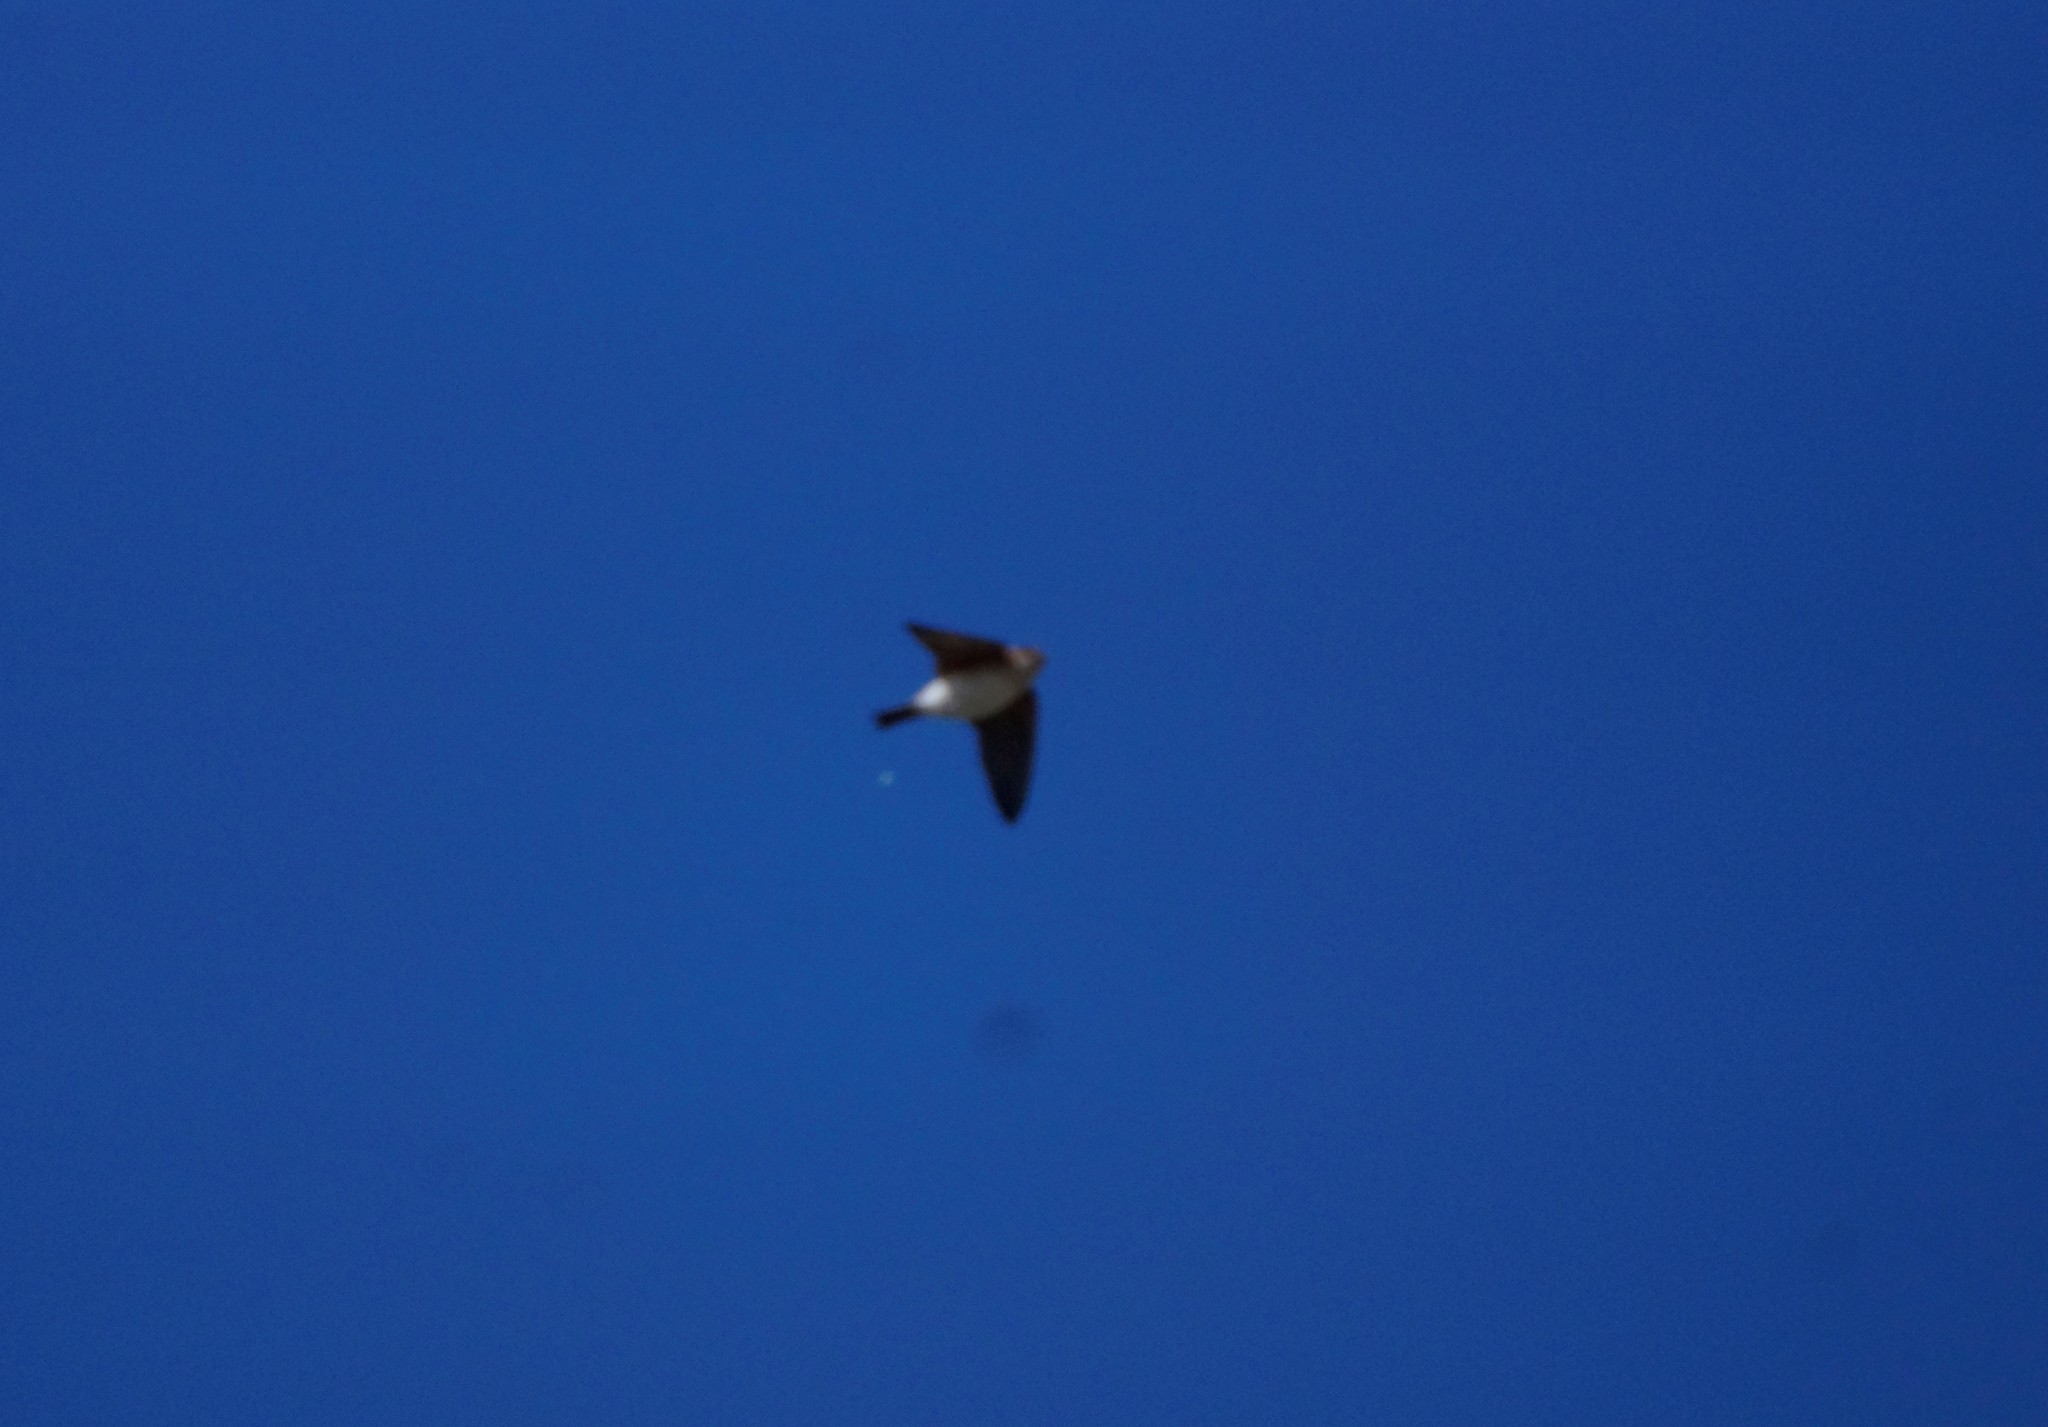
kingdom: Animalia
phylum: Chordata
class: Aves
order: Passeriformes
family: Hirundinidae
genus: Petrochelidon
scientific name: Petrochelidon ariel
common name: Fairy martin
